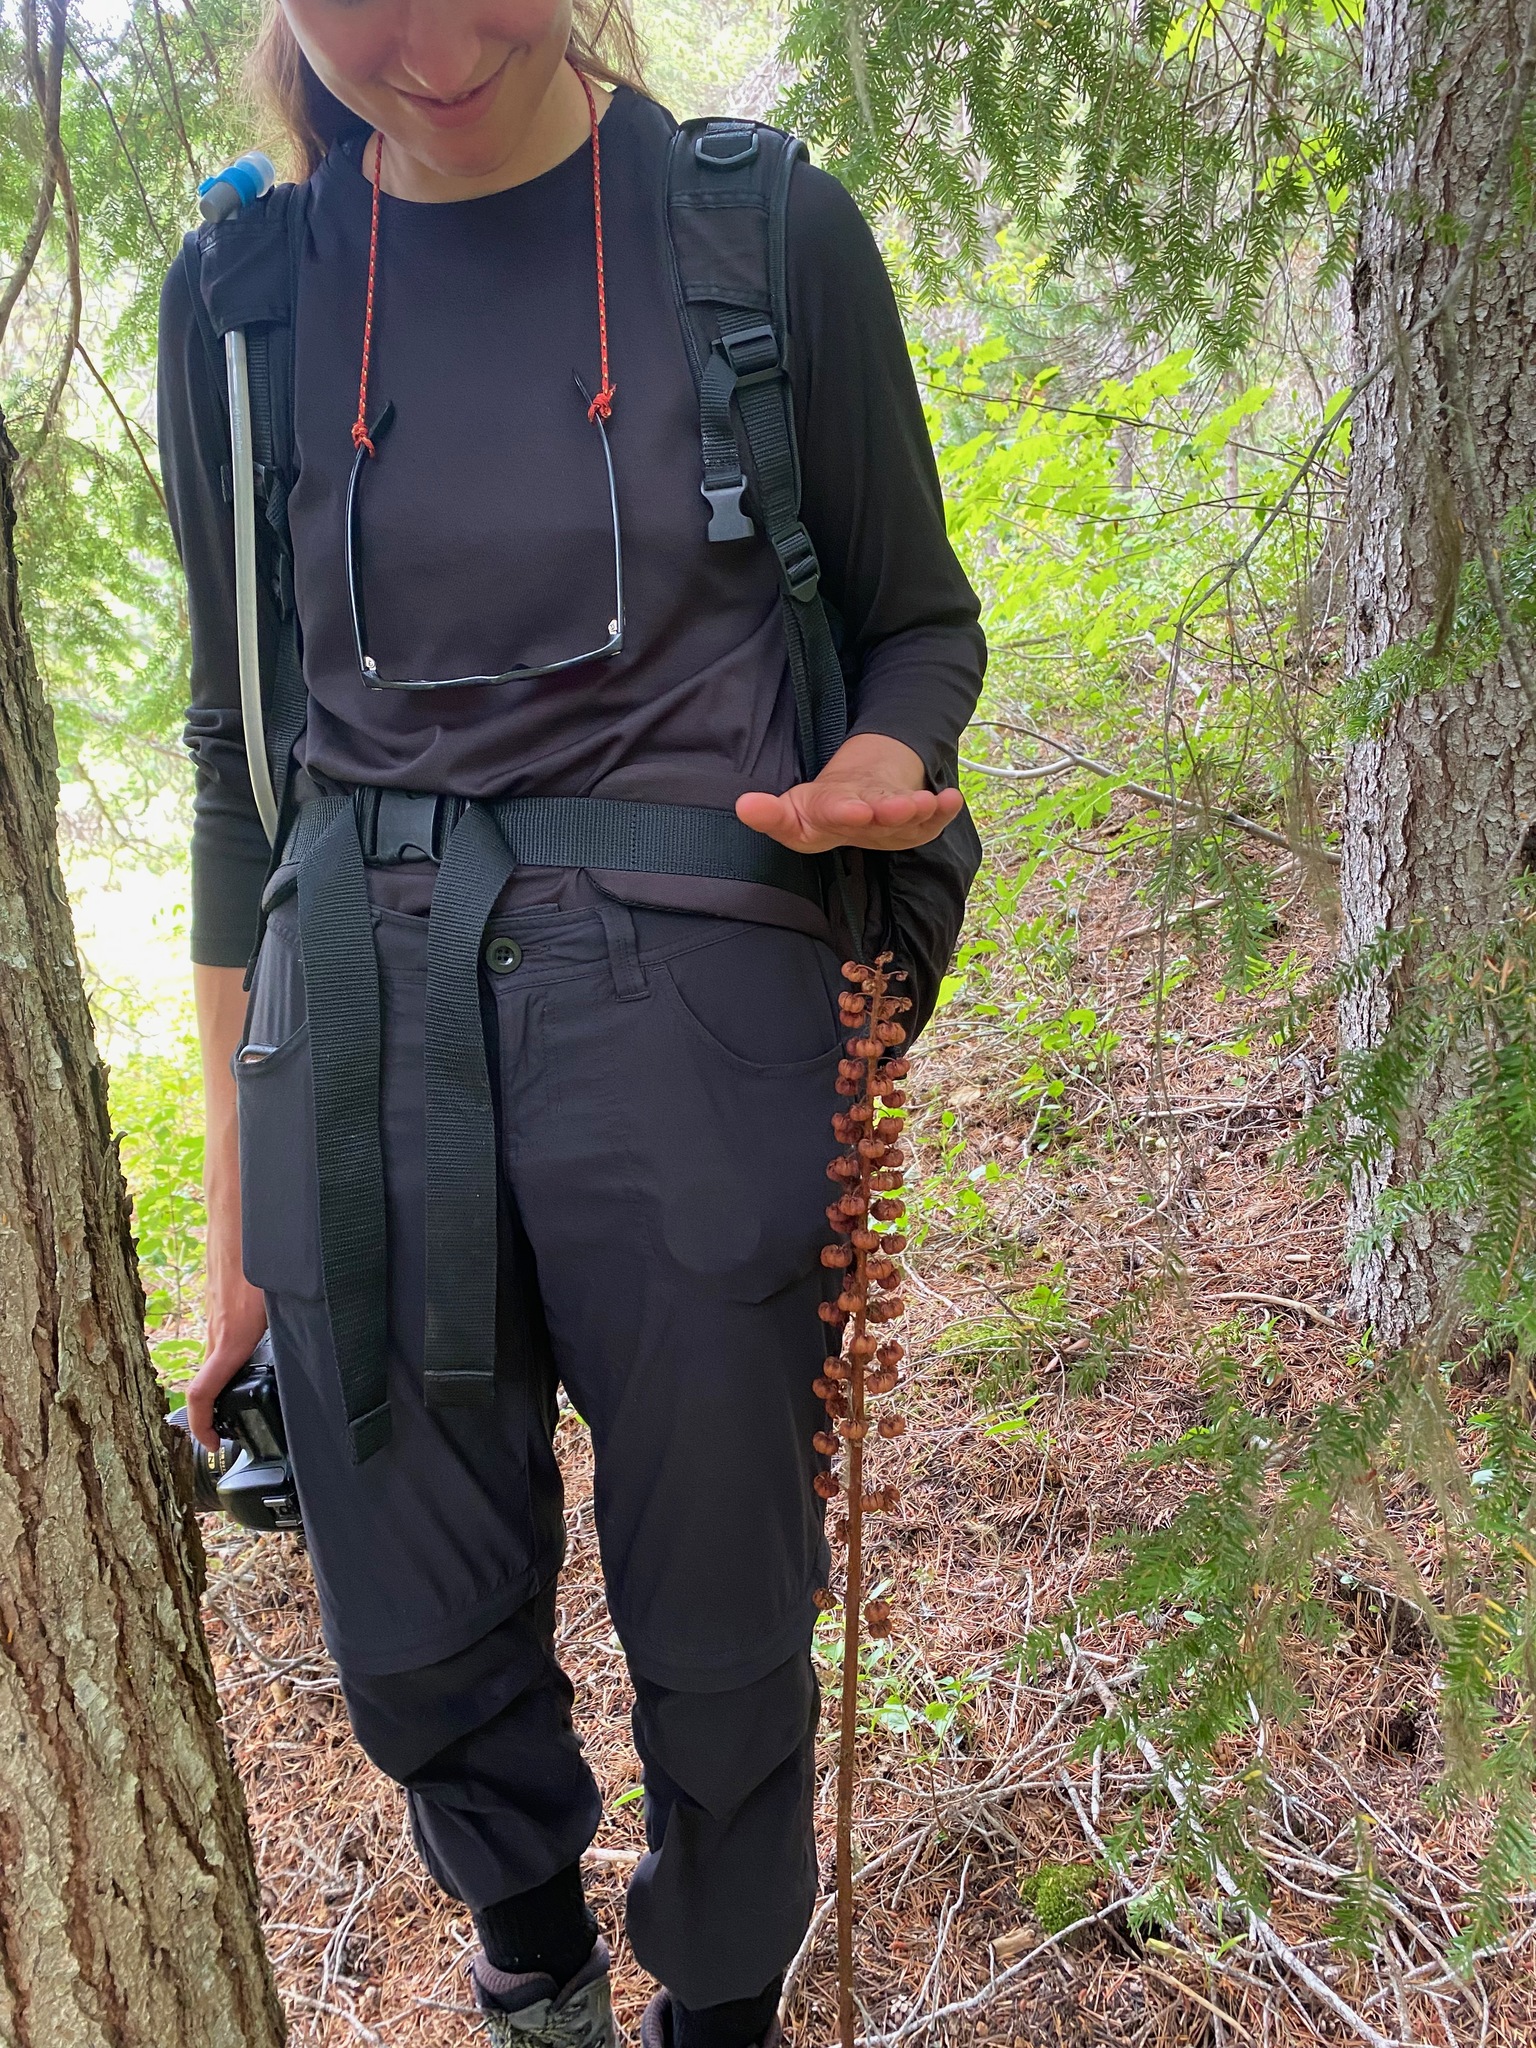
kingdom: Plantae
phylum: Tracheophyta
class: Magnoliopsida
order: Ericales
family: Ericaceae
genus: Pterospora
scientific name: Pterospora andromedea
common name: Giant bird's-nest
